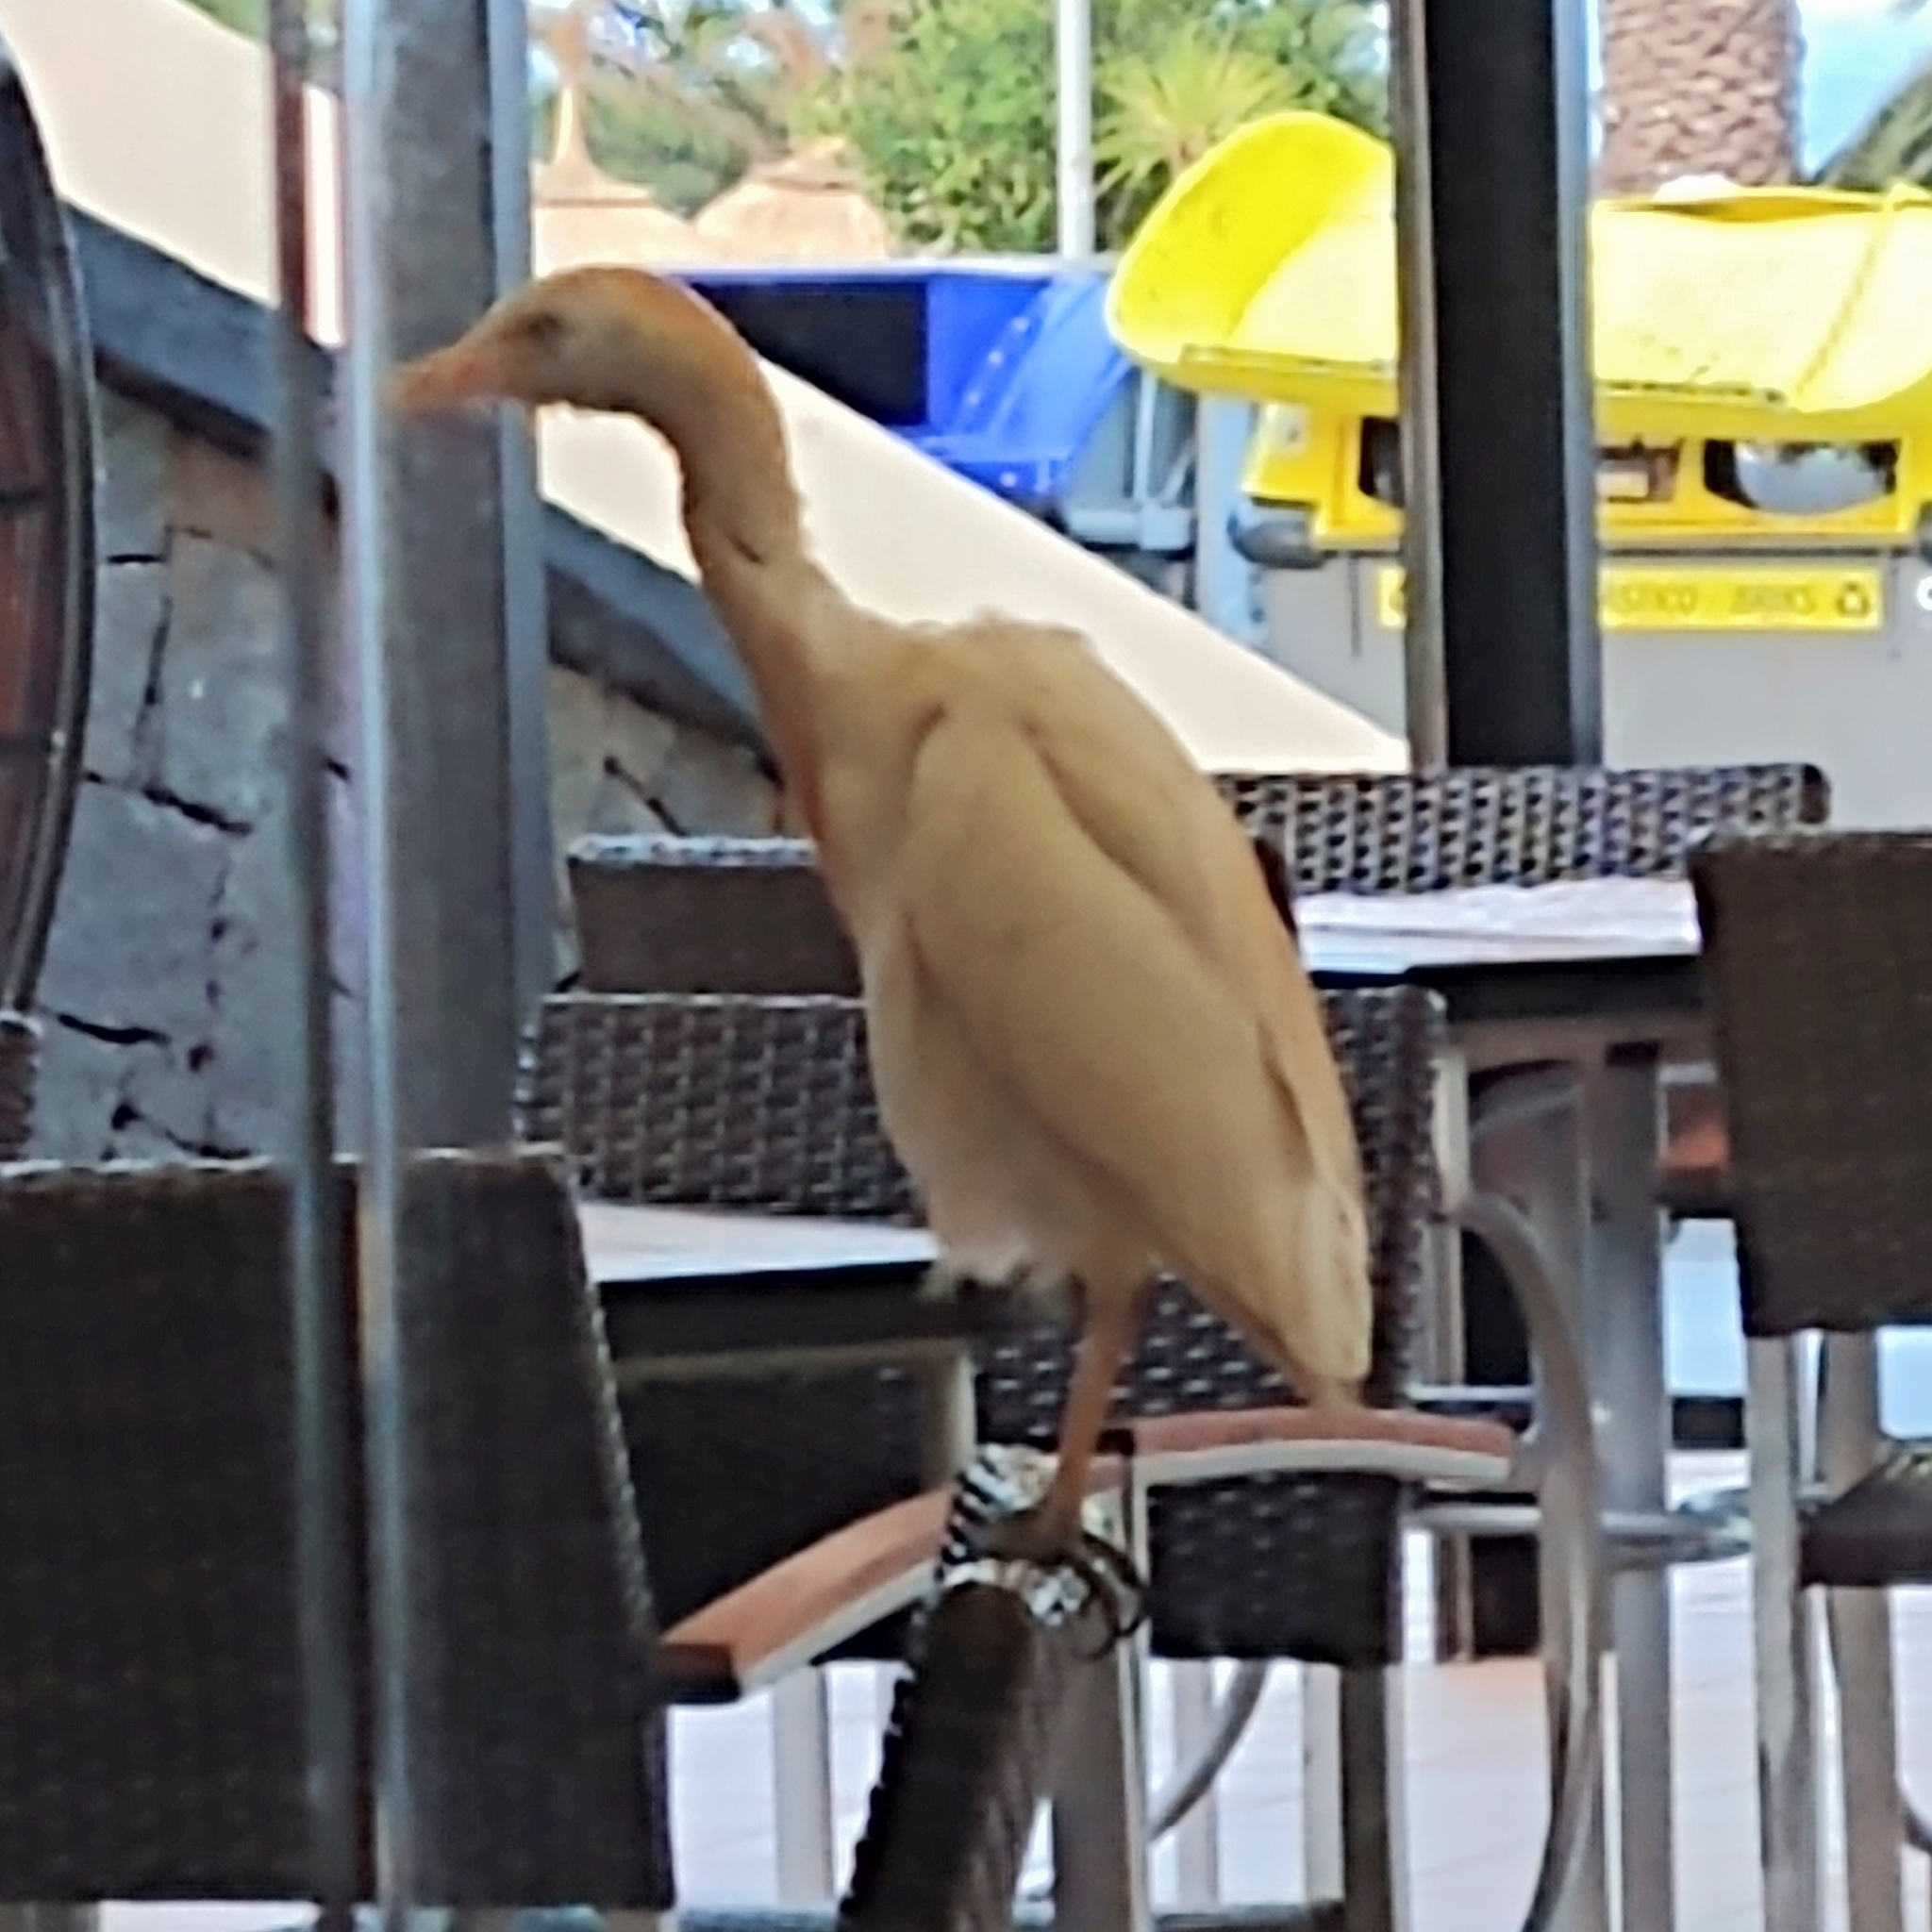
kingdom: Animalia
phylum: Chordata
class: Aves
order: Pelecaniformes
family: Ardeidae
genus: Bubulcus
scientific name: Bubulcus ibis
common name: Cattle egret
